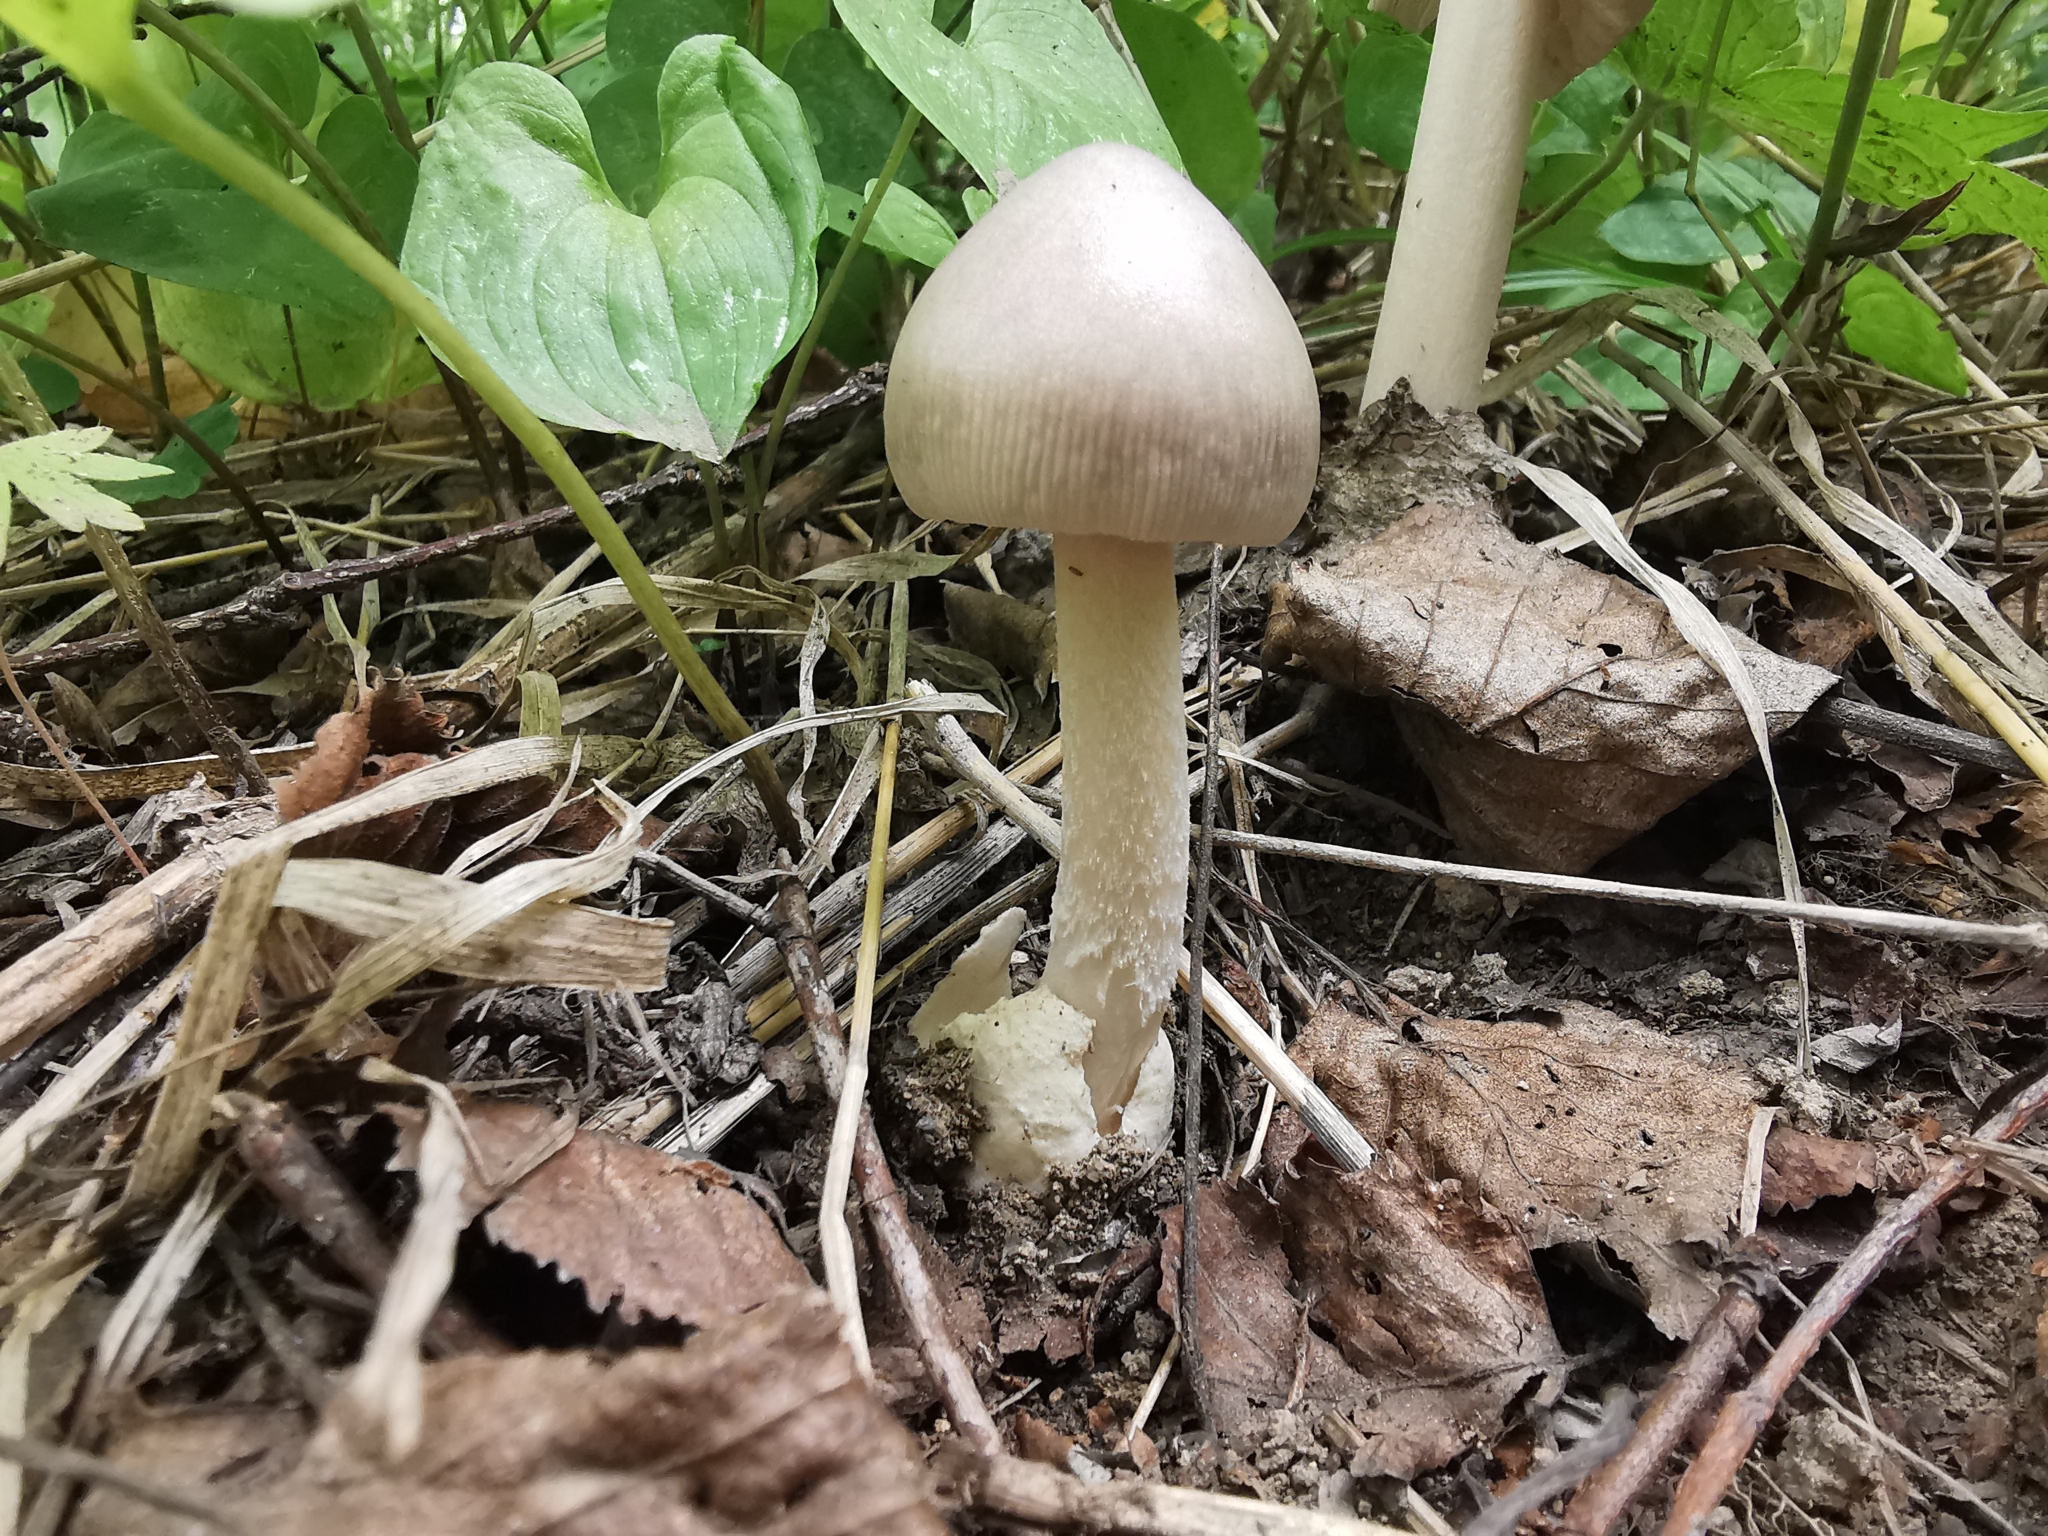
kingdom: Fungi
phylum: Basidiomycota
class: Agaricomycetes
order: Agaricales
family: Amanitaceae
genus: Amanita
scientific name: Amanita vaginata
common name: Grisette
